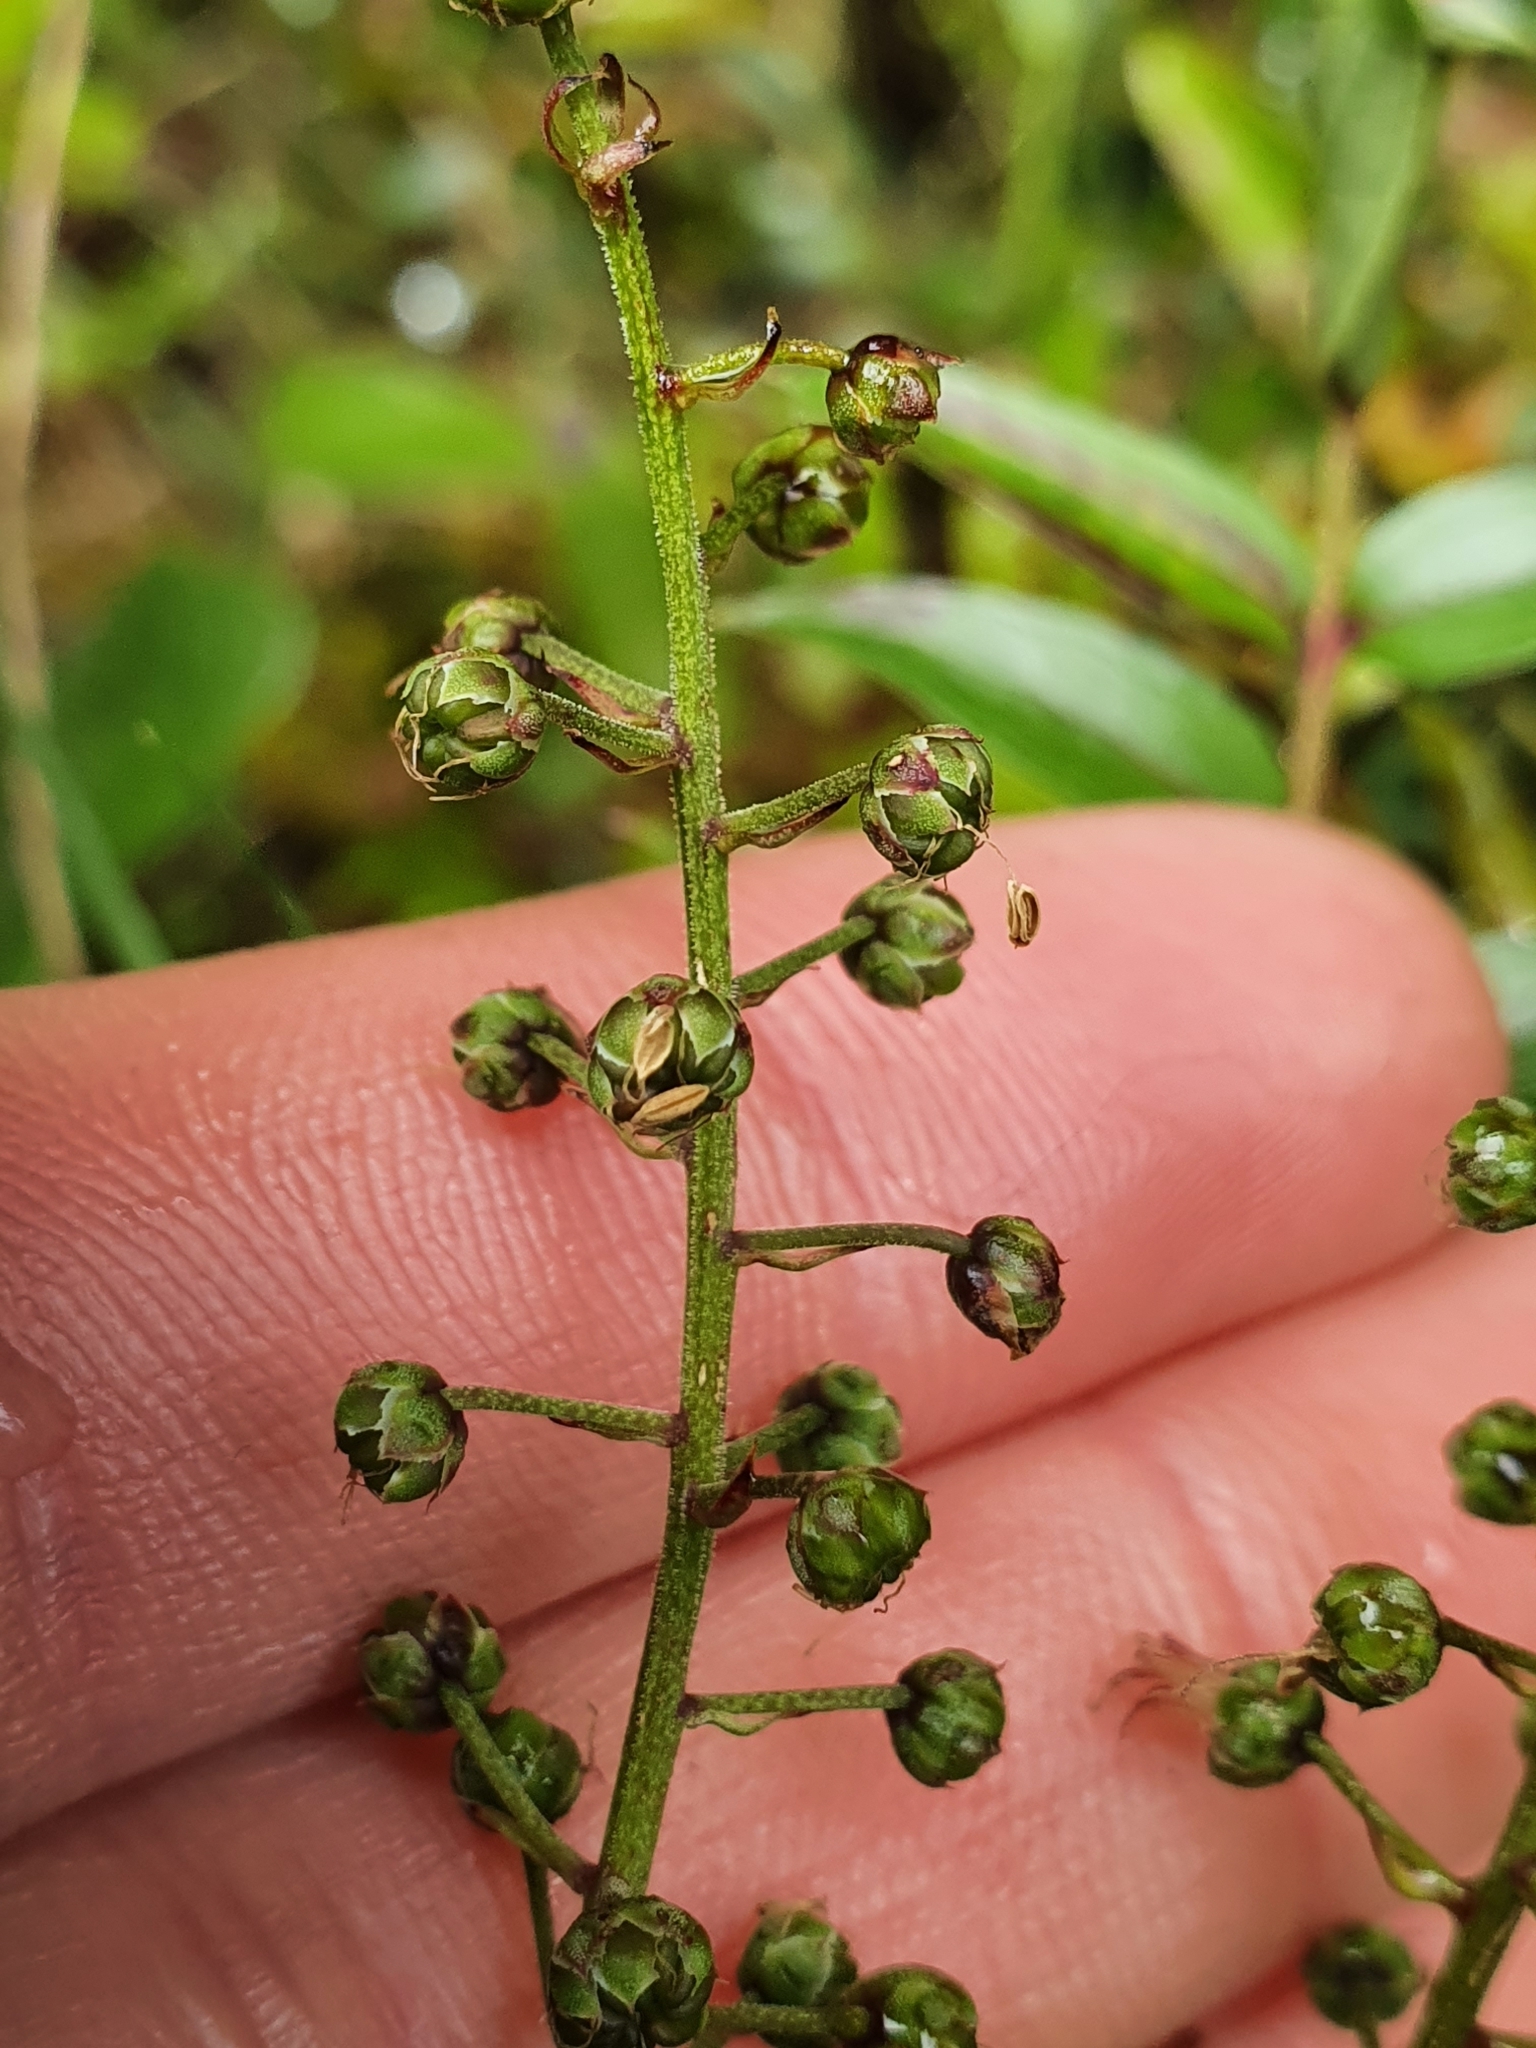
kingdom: Plantae
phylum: Tracheophyta
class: Magnoliopsida
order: Cucurbitales
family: Coriariaceae
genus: Coriaria
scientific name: Coriaria plumosa
